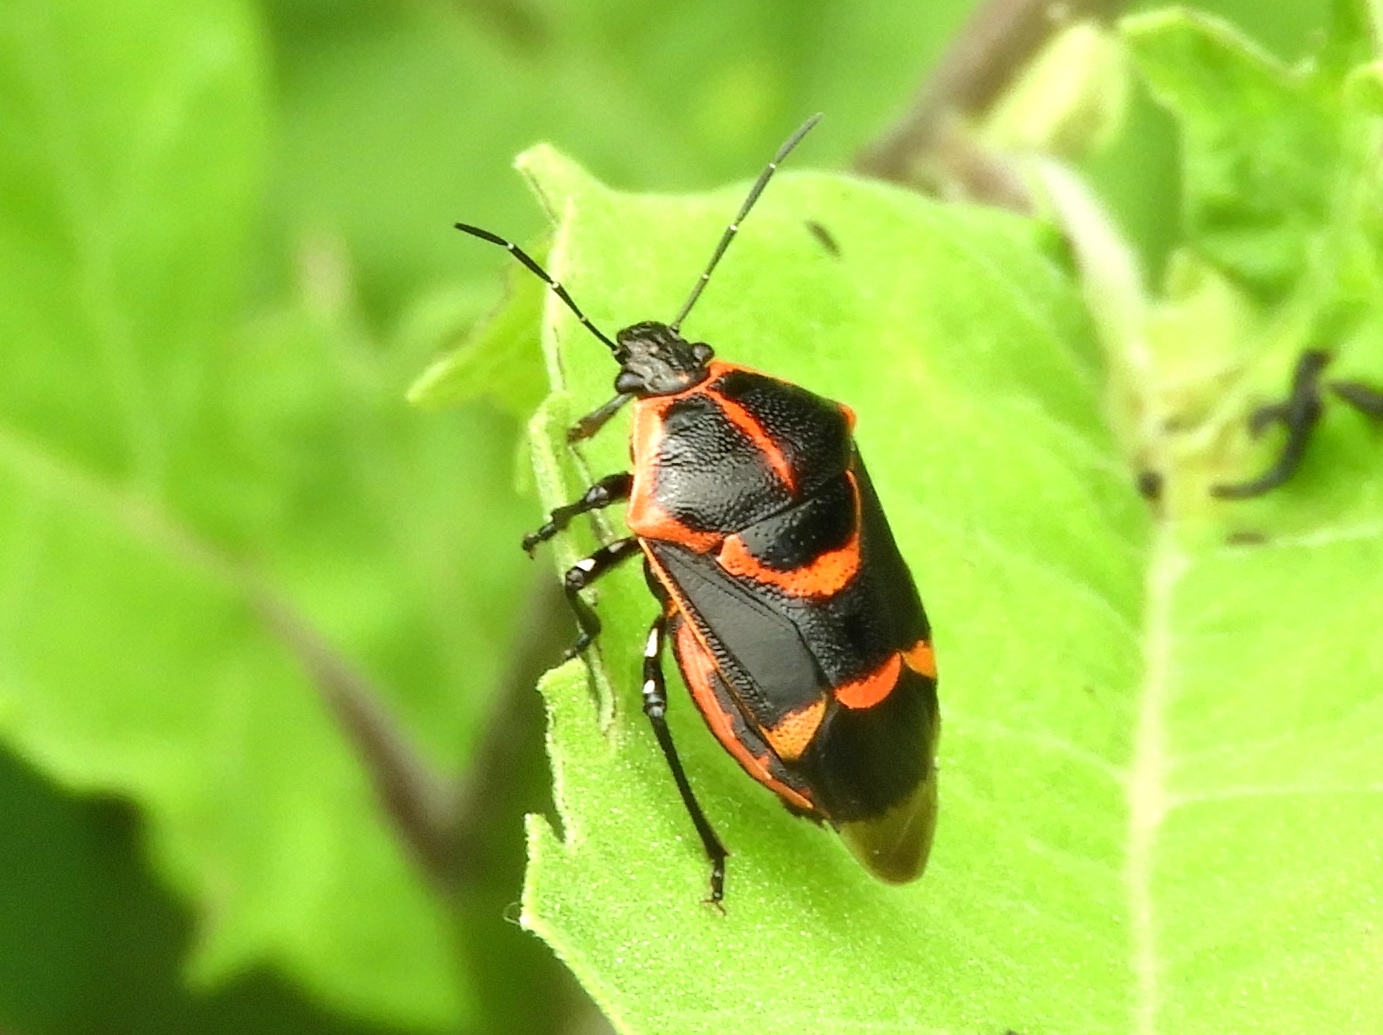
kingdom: Animalia
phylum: Arthropoda
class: Insecta
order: Hemiptera
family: Pentatomidae
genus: Oplomus
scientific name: Oplomus
